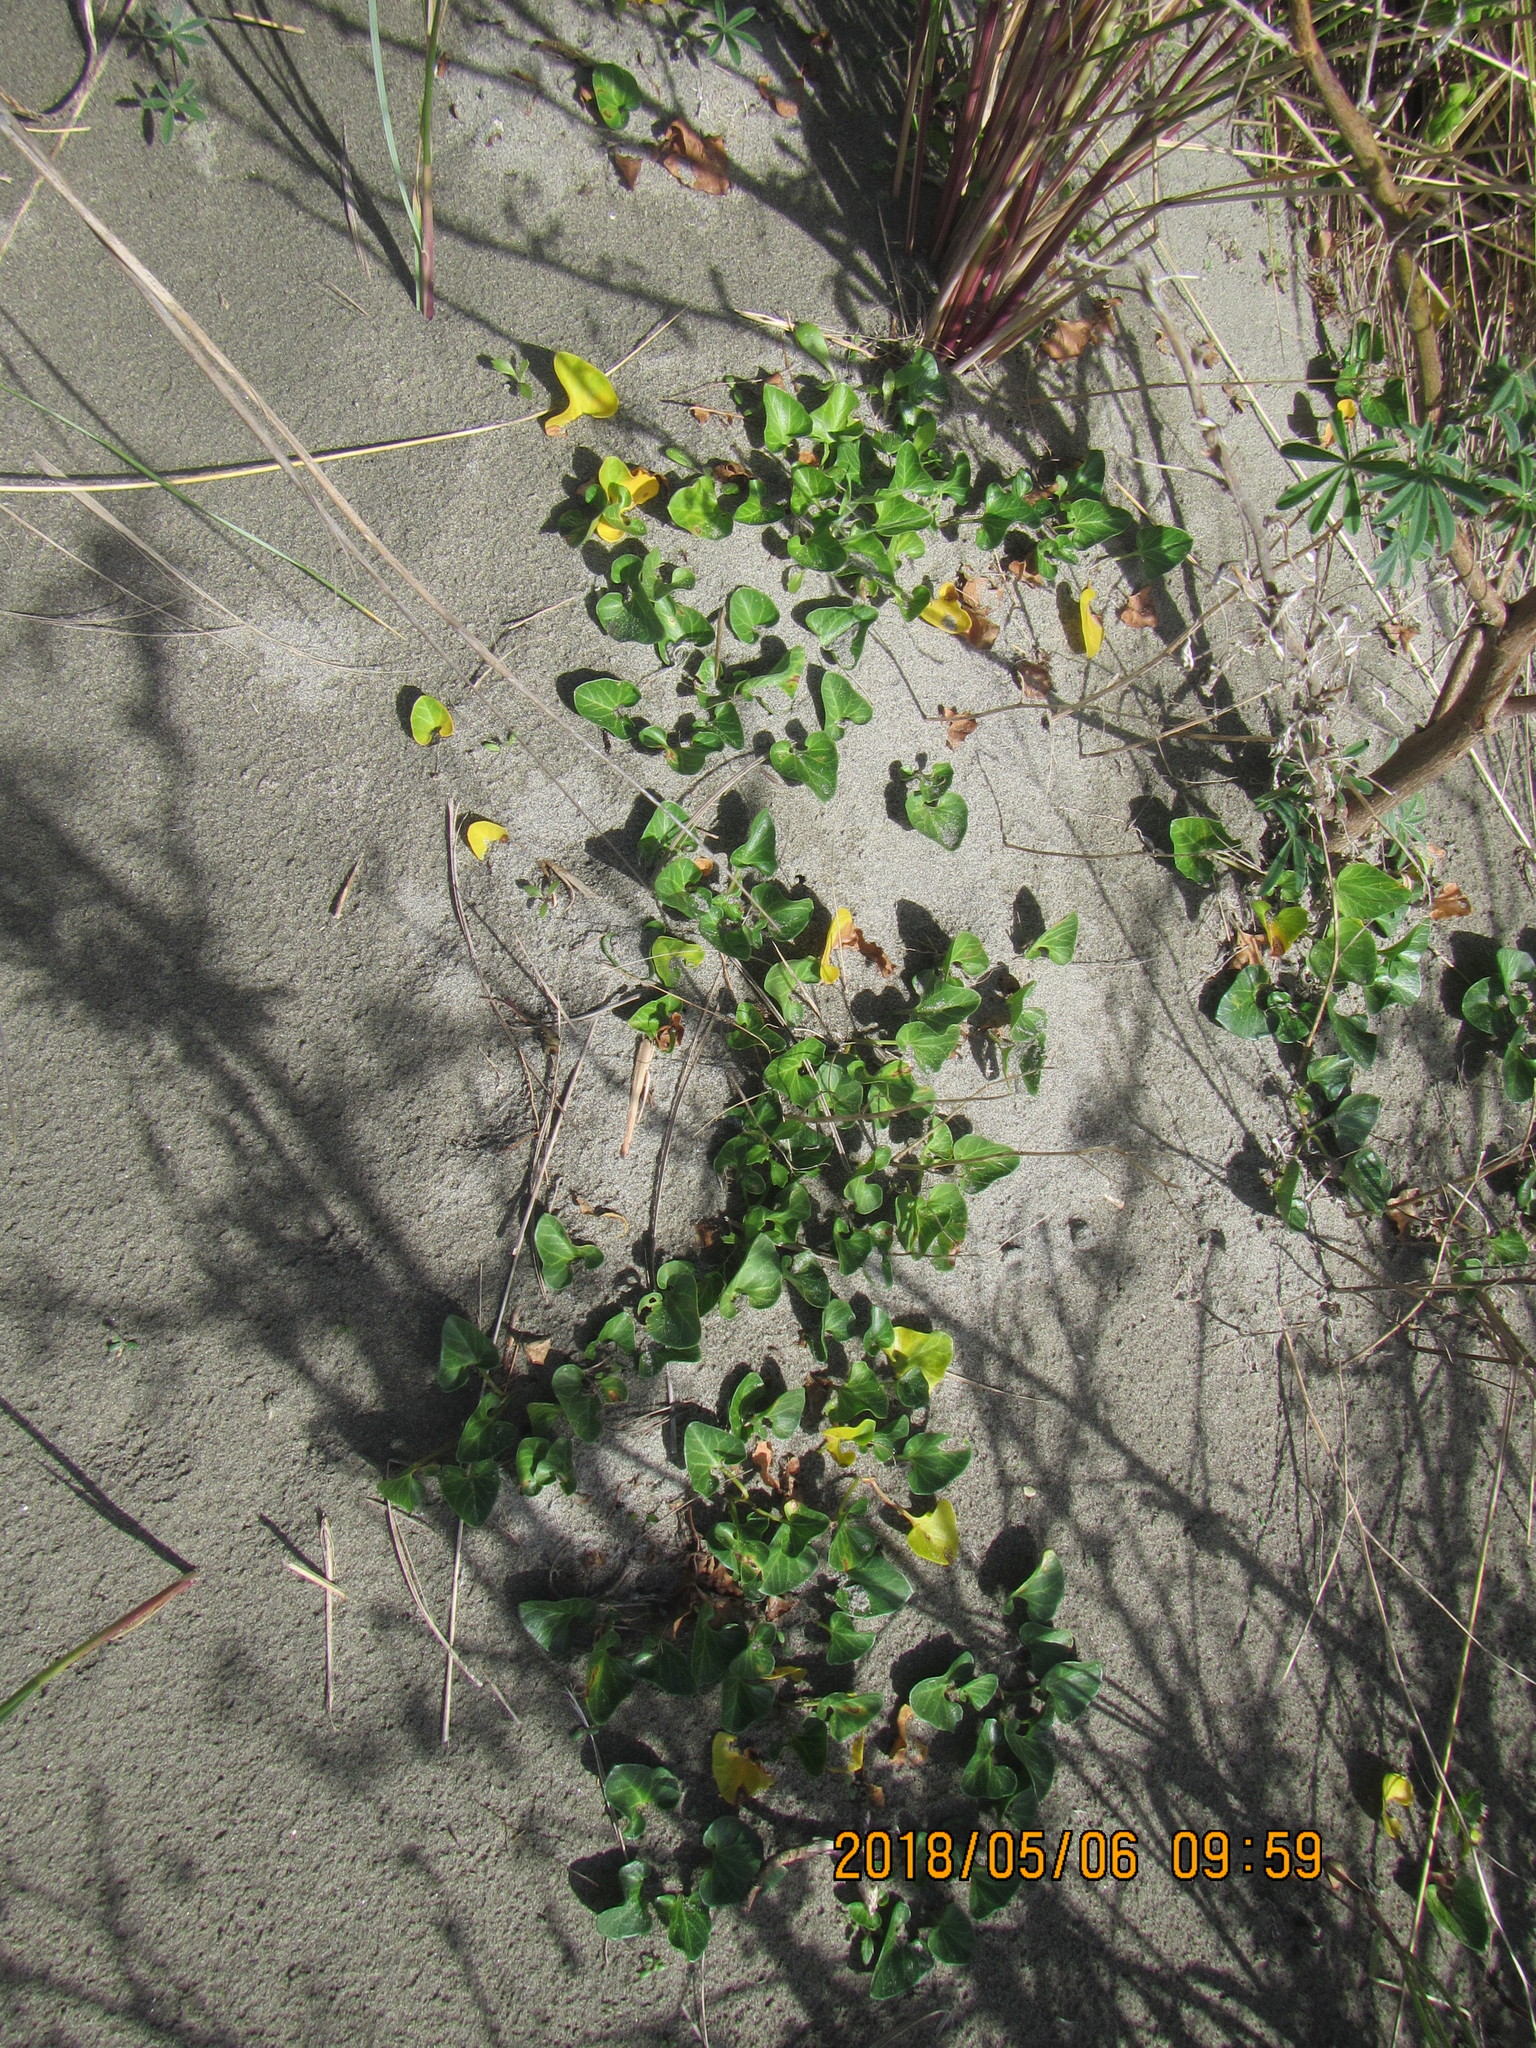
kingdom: Plantae
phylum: Tracheophyta
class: Magnoliopsida
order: Solanales
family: Convolvulaceae
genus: Calystegia
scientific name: Calystegia soldanella
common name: Sea bindweed
